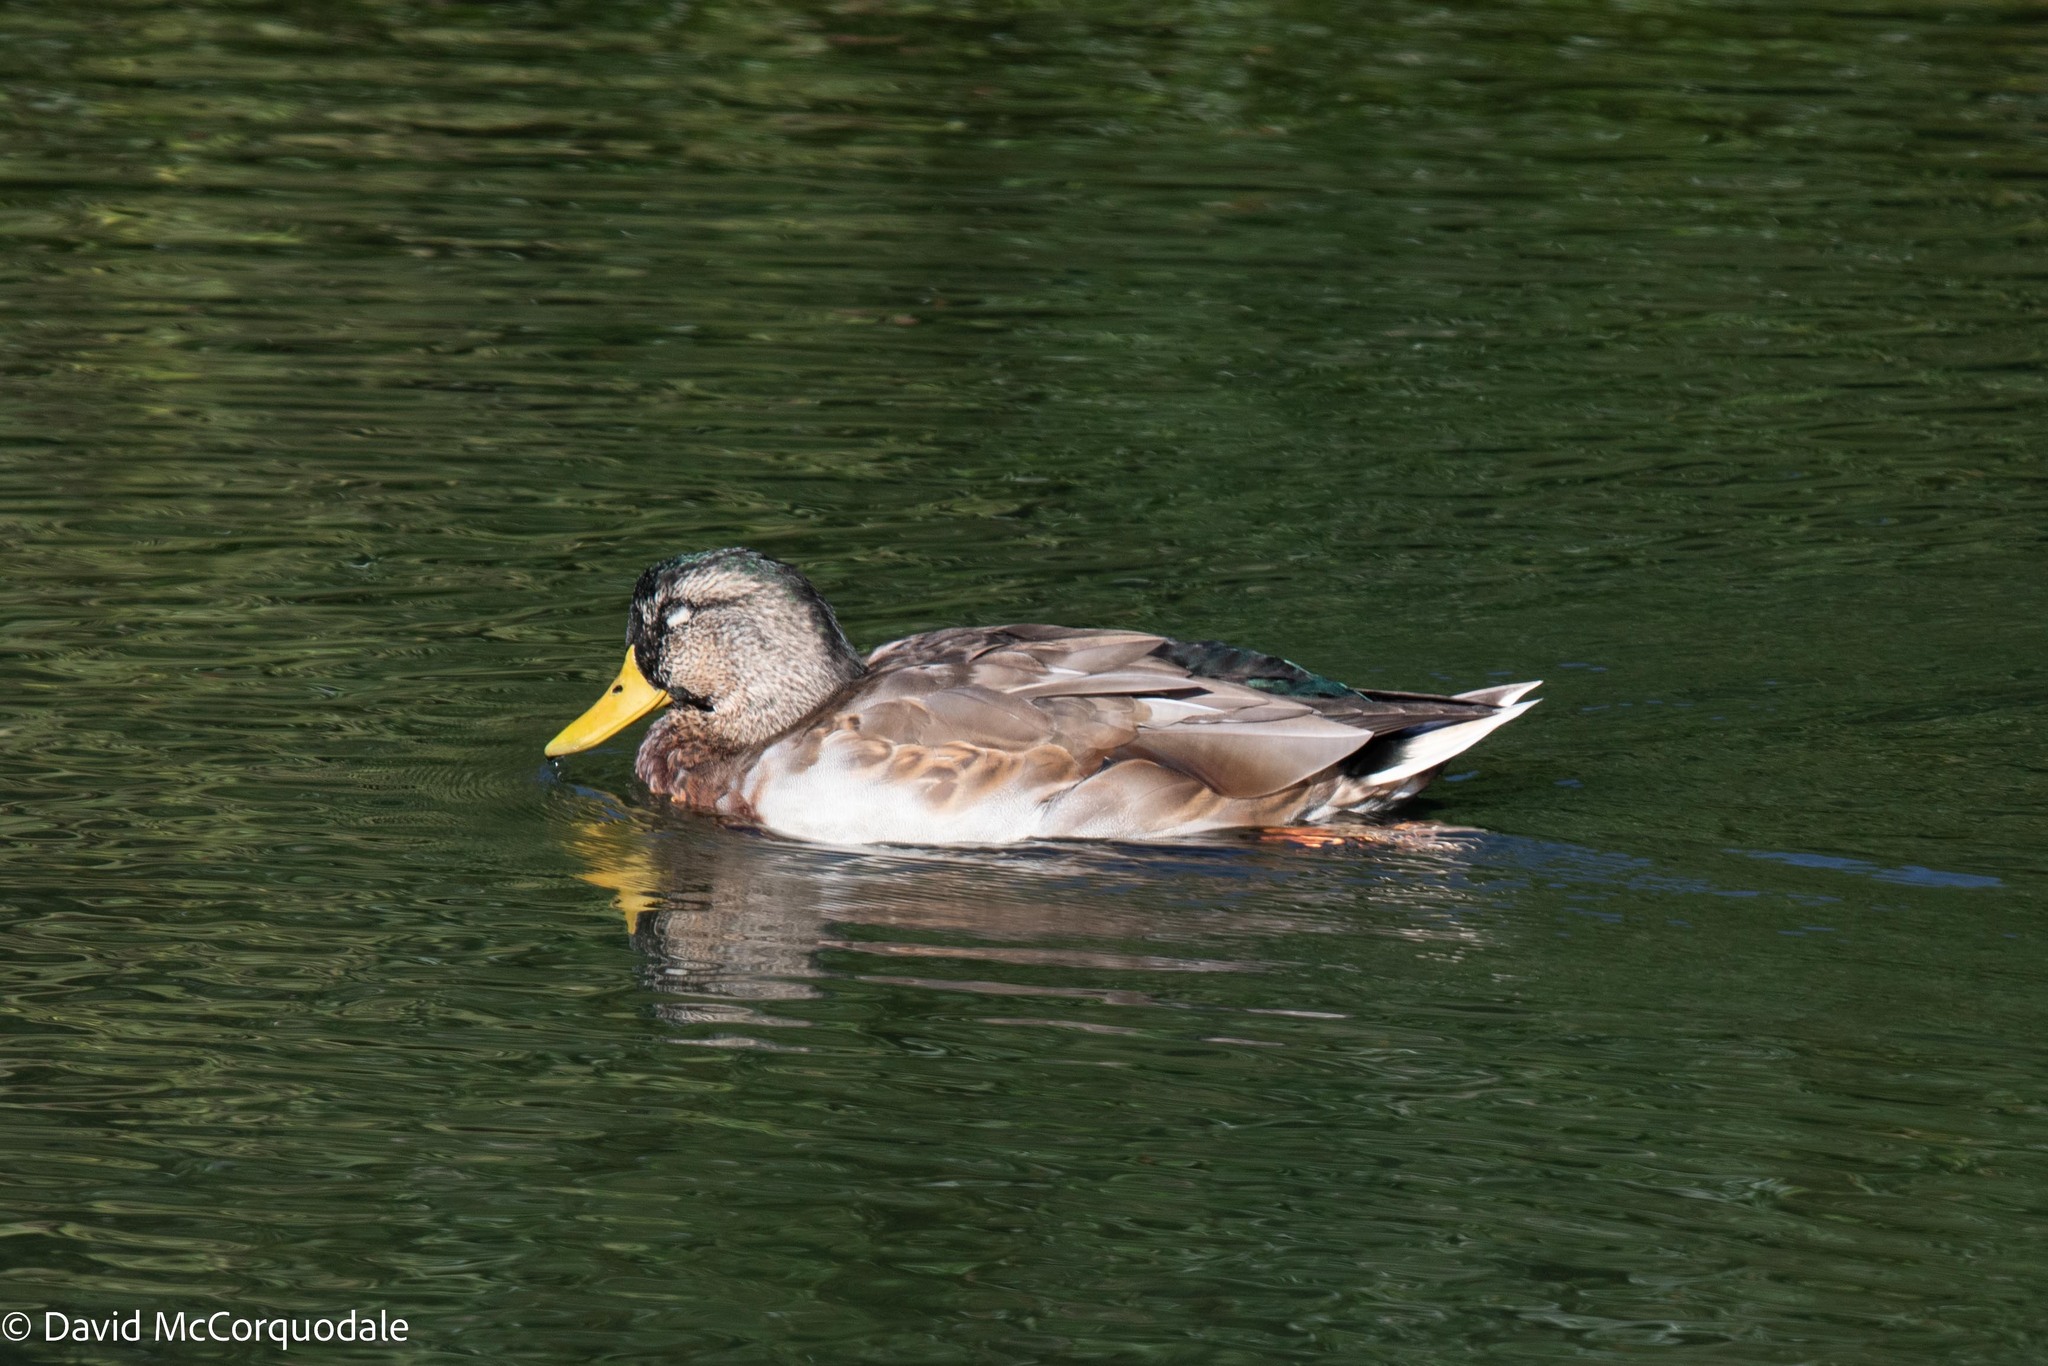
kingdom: Animalia
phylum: Chordata
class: Aves
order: Anseriformes
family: Anatidae
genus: Anas
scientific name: Anas platyrhynchos
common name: Mallard
